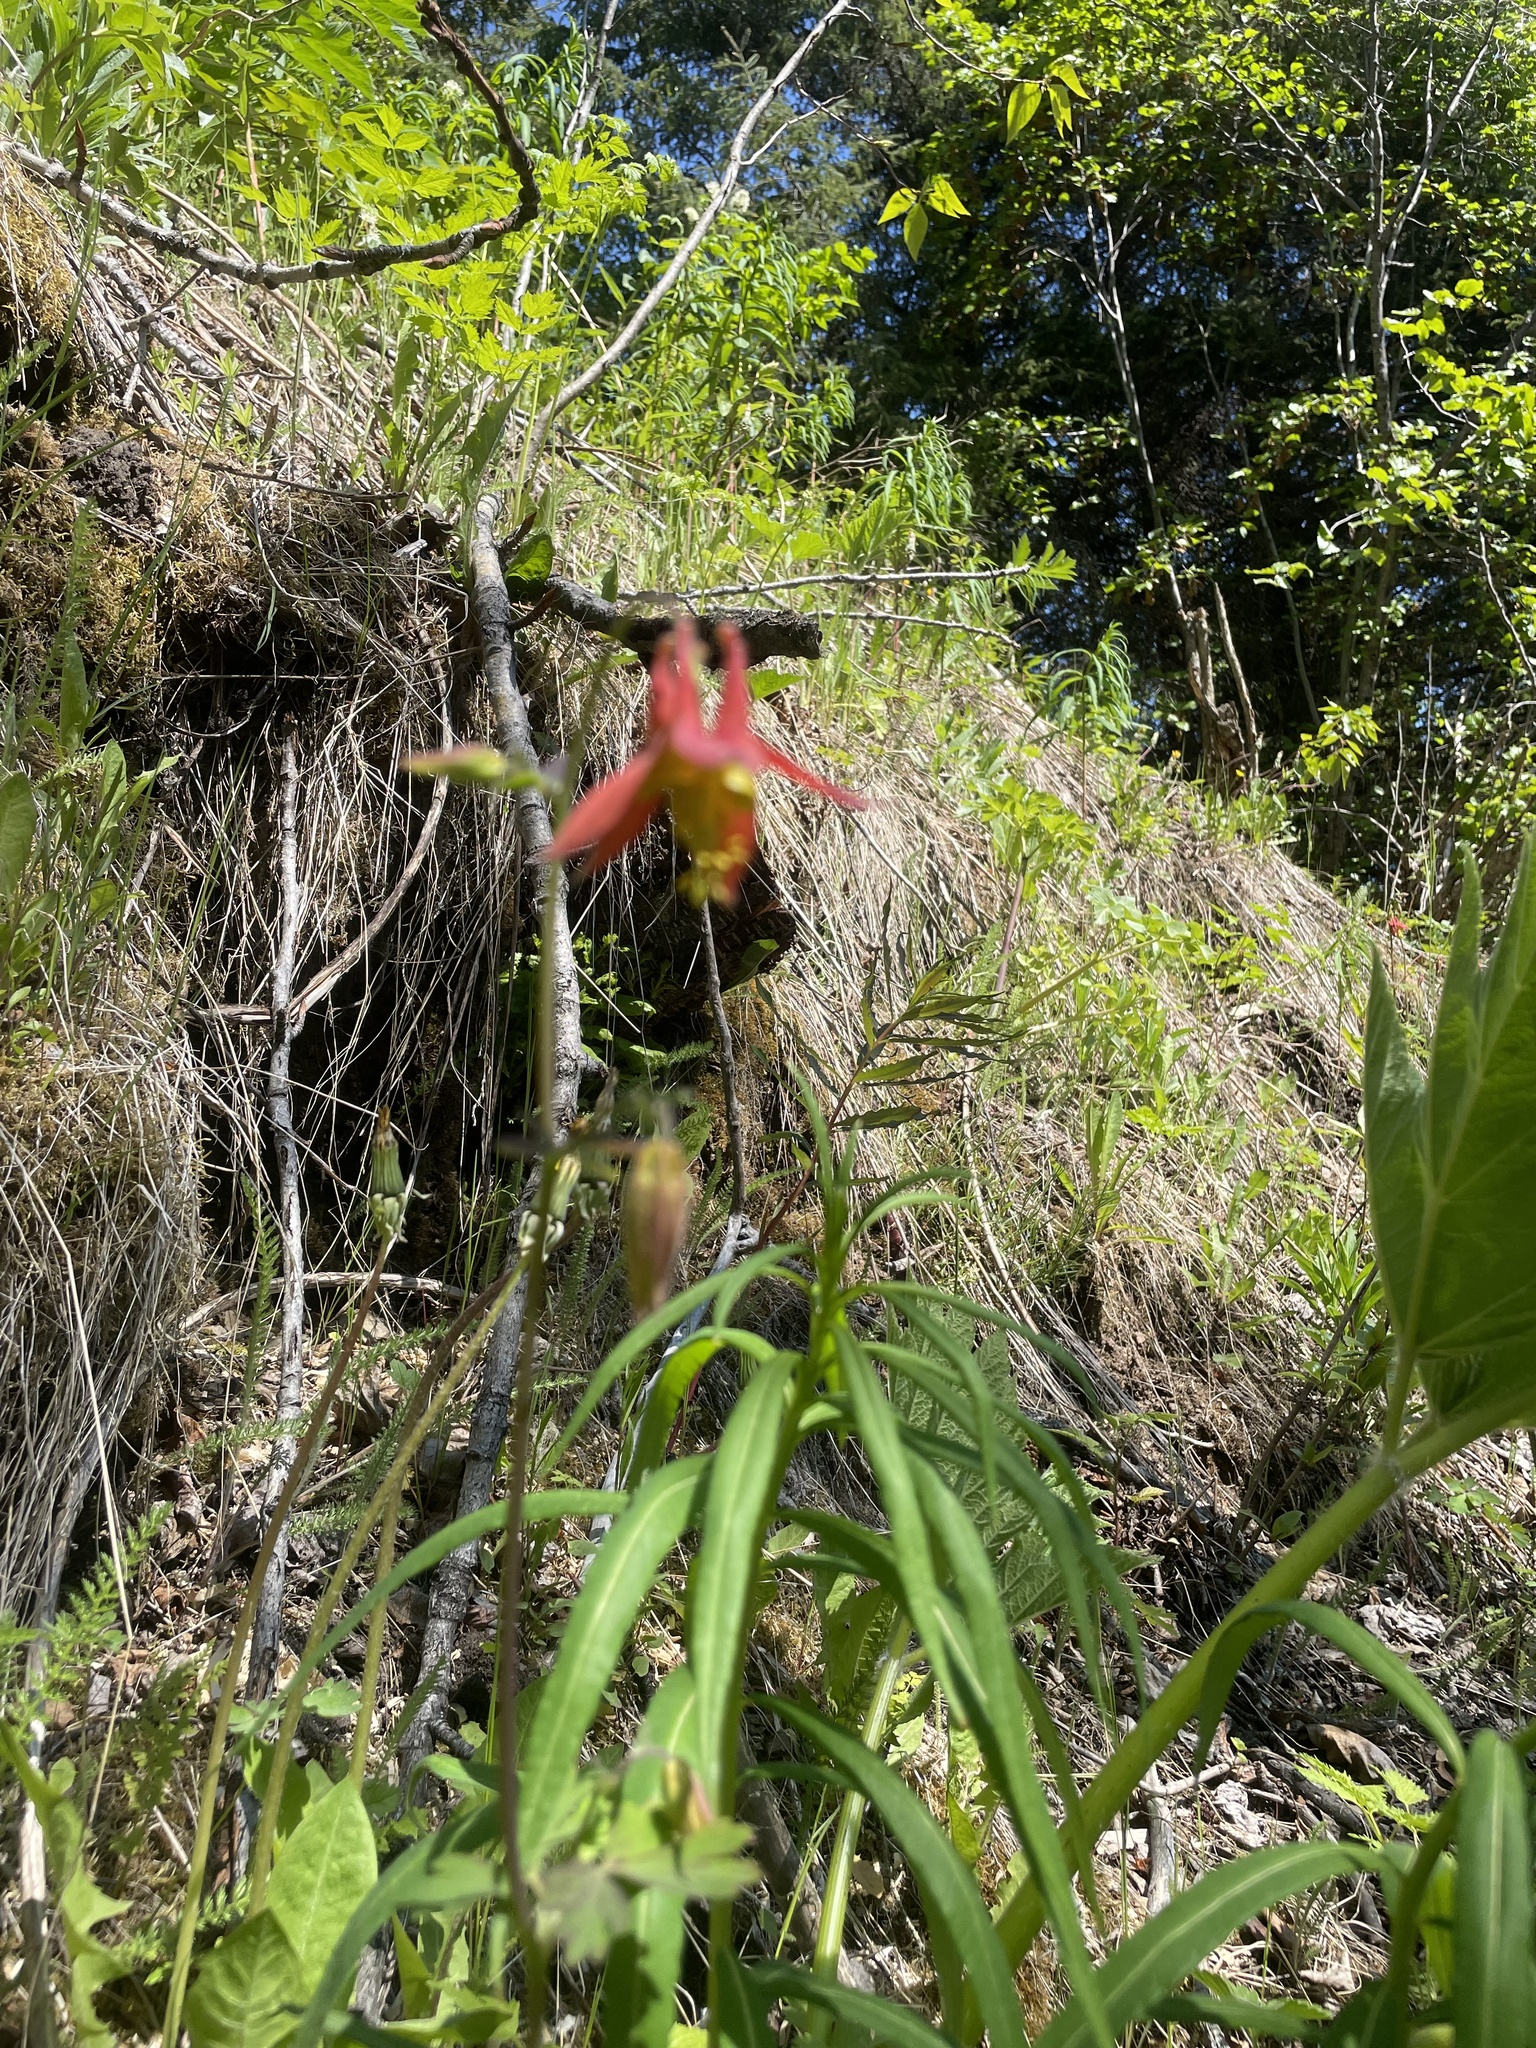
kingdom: Plantae
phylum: Tracheophyta
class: Magnoliopsida
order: Ranunculales
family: Ranunculaceae
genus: Aquilegia
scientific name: Aquilegia formosa
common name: Sitka columbine
